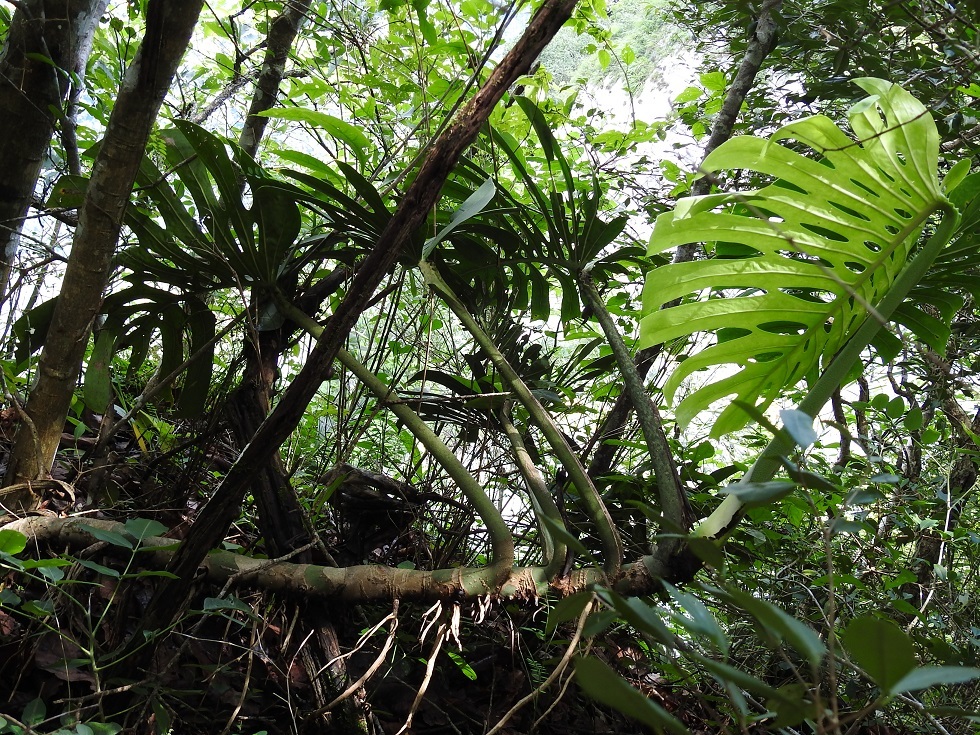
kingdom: Plantae
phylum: Tracheophyta
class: Liliopsida
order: Alismatales
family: Araceae
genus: Monstera
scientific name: Monstera deliciosa
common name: Cut-leaf-philodendron
